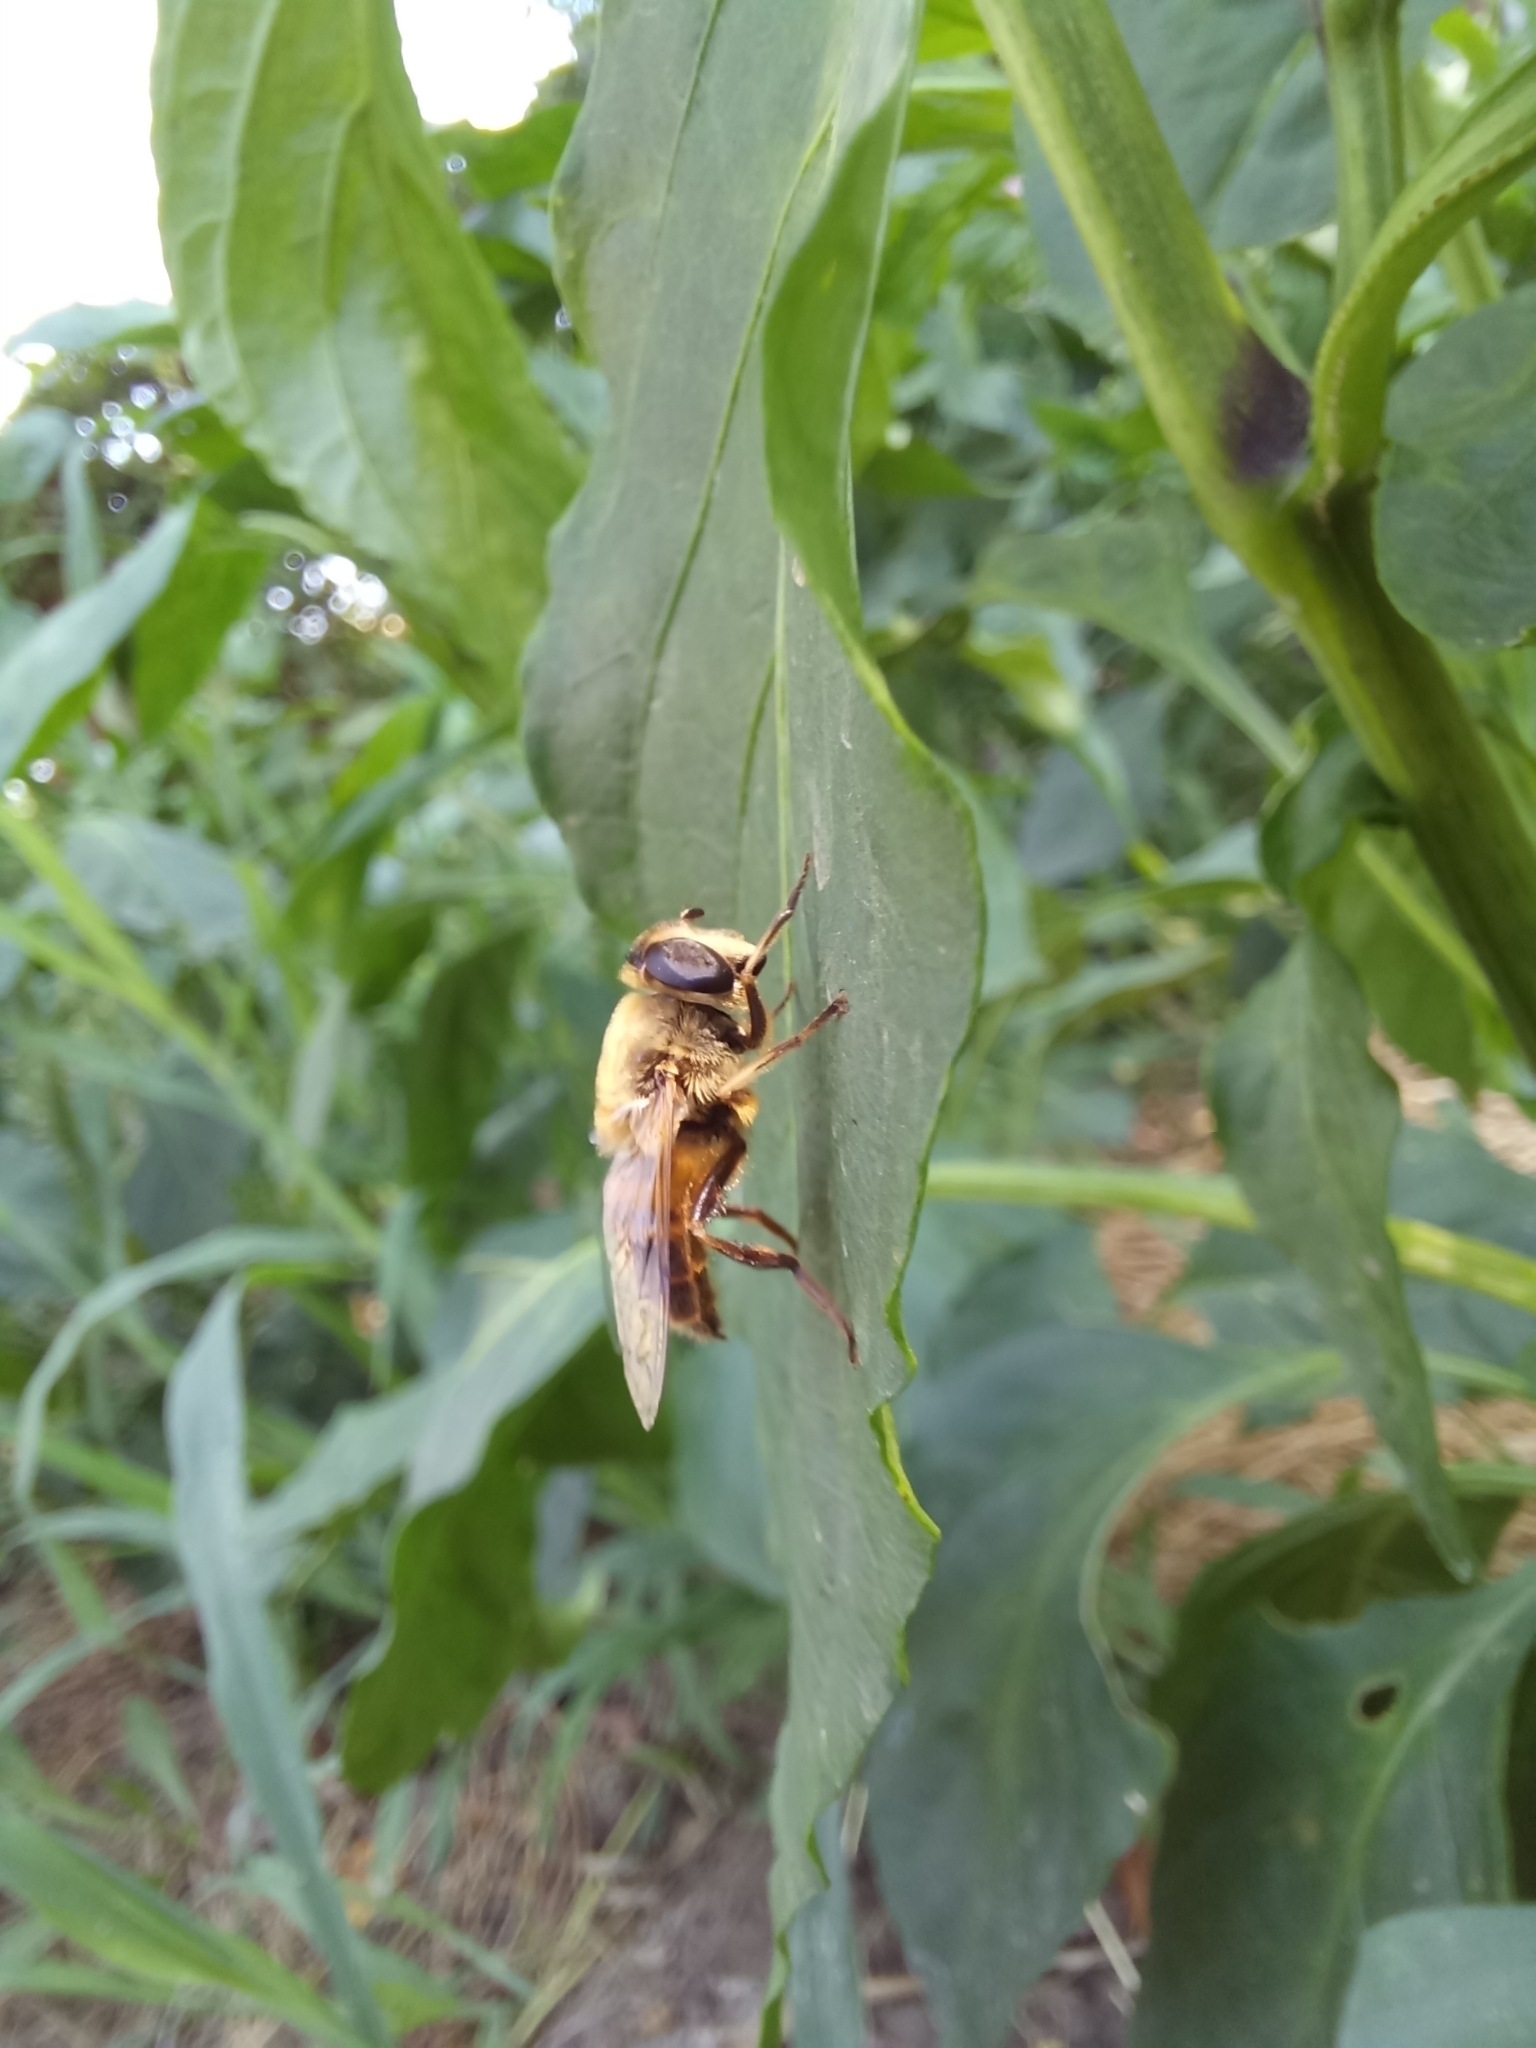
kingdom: Animalia
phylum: Arthropoda
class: Insecta
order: Diptera
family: Syrphidae
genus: Eristalis
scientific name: Eristalis tenax
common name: Drone fly
